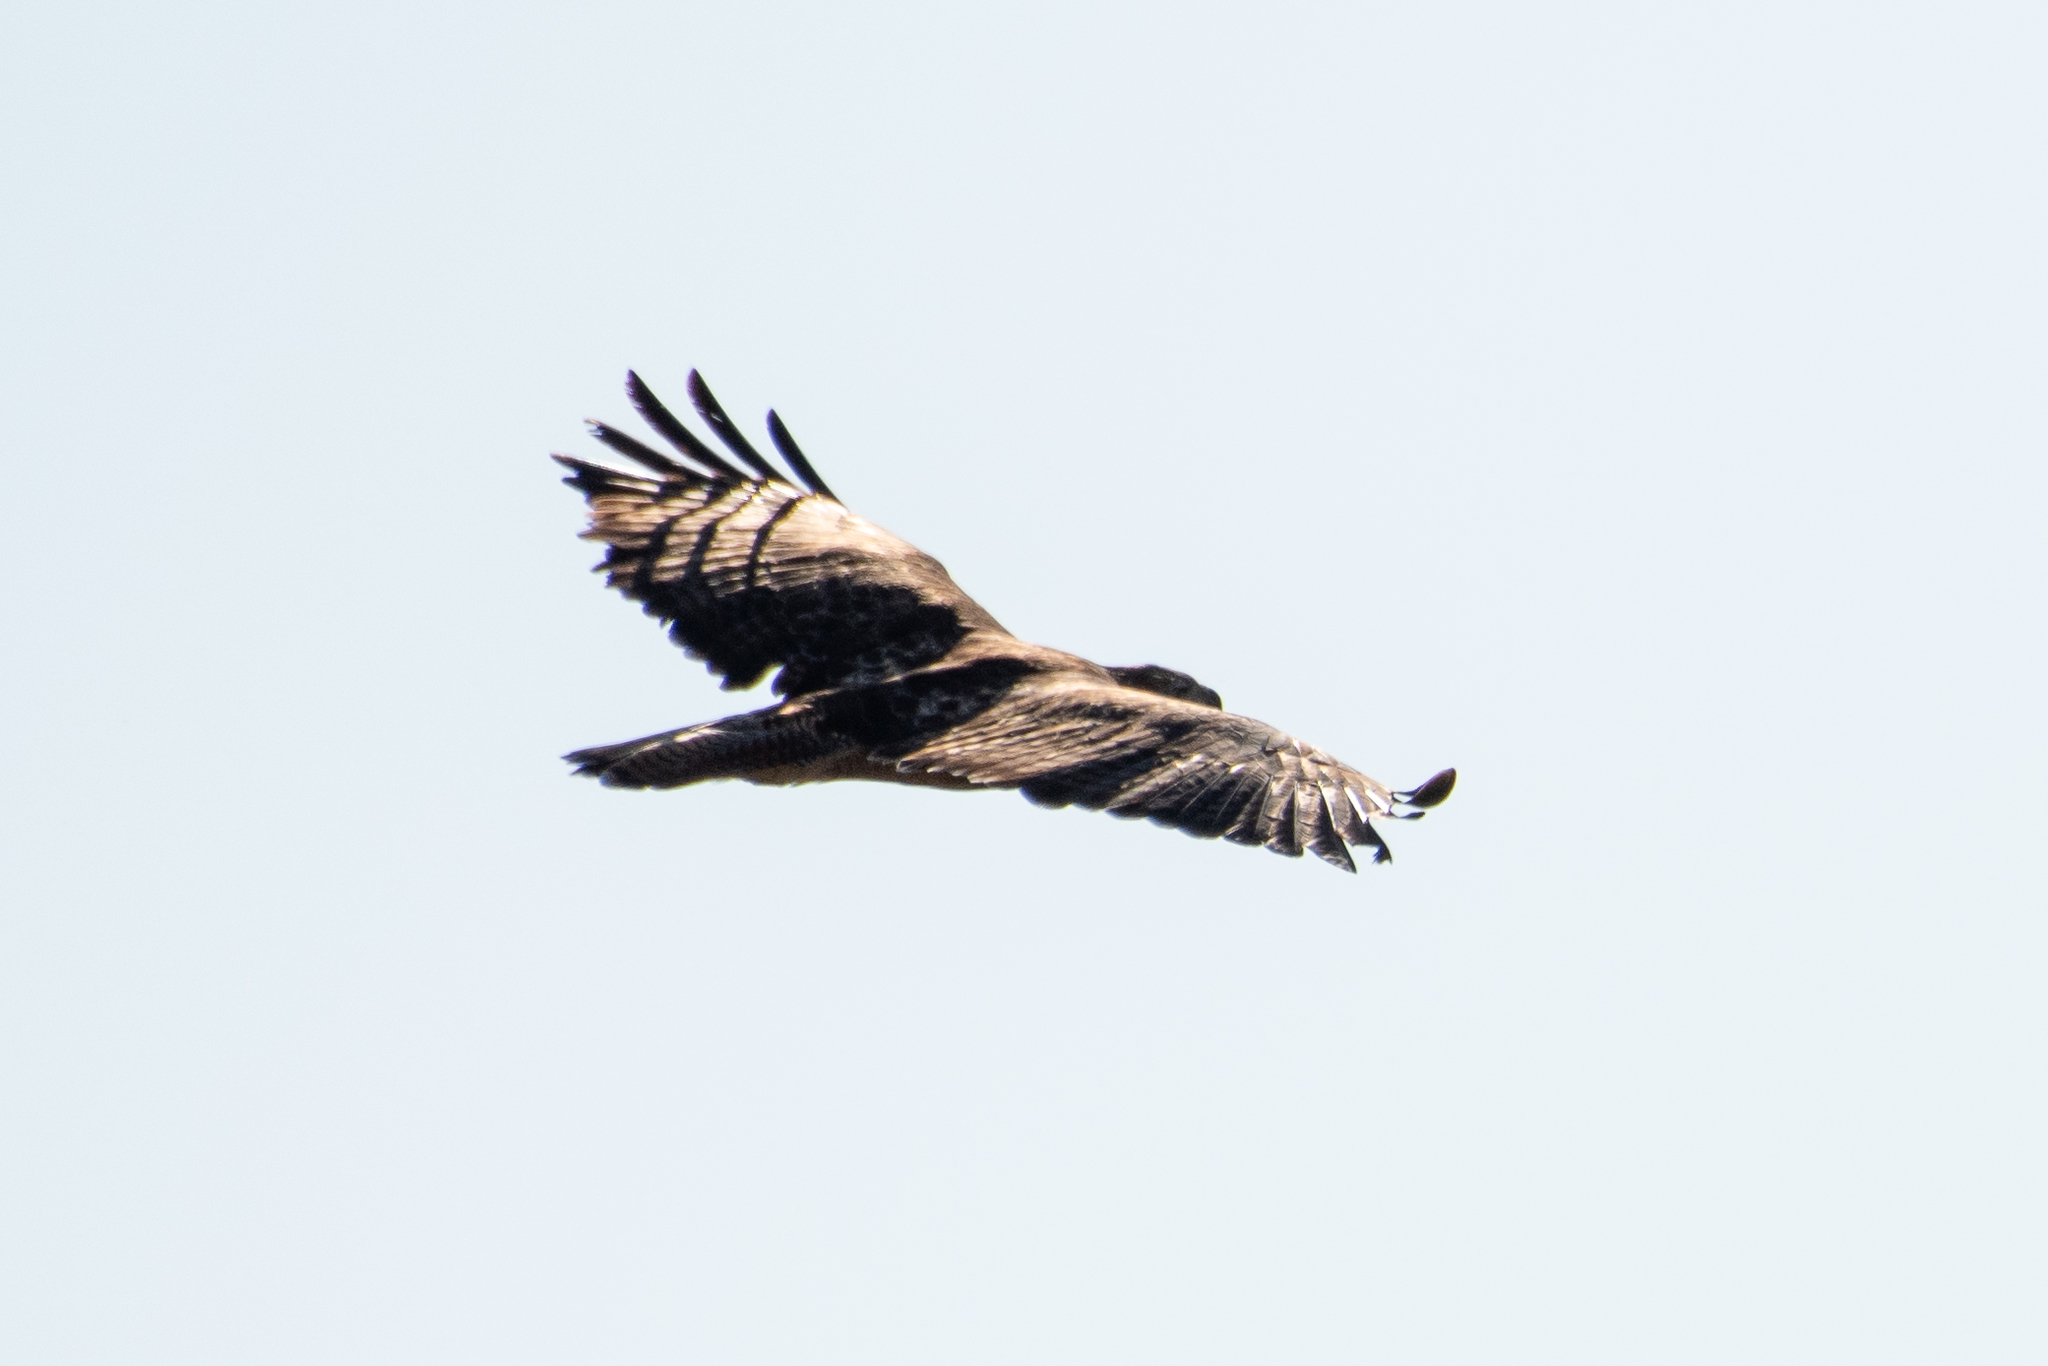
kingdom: Animalia
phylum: Chordata
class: Aves
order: Accipitriformes
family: Accipitridae
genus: Buteo
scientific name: Buteo jamaicensis
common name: Red-tailed hawk
